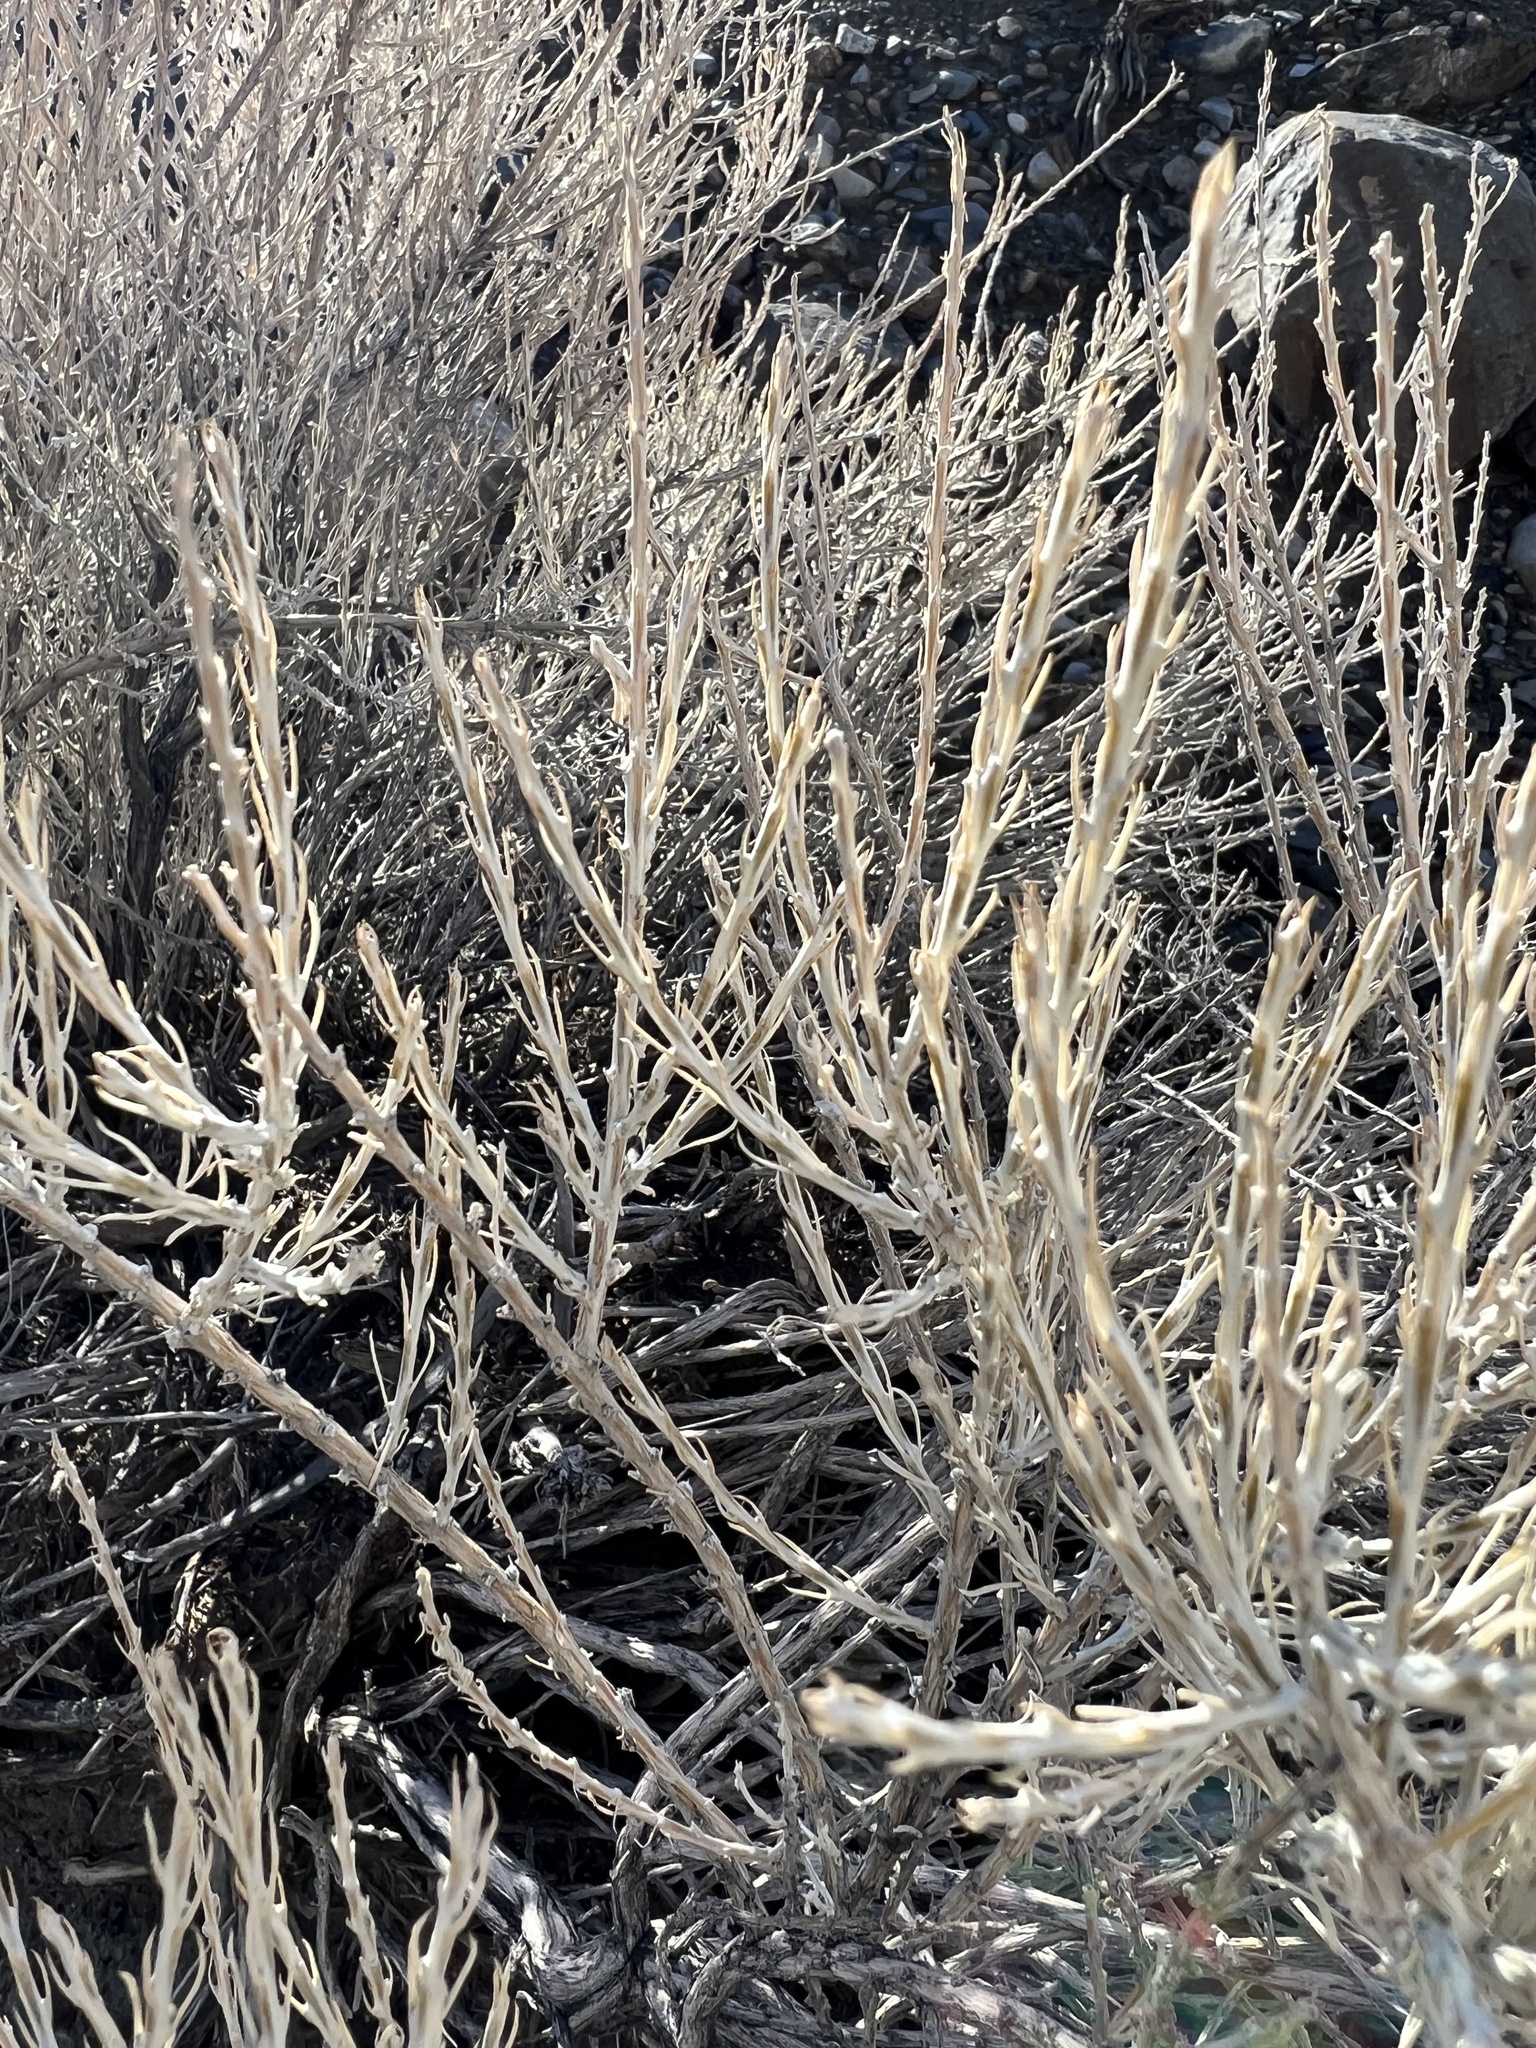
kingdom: Plantae
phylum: Tracheophyta
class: Magnoliopsida
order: Asterales
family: Asteraceae
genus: Tetradymia
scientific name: Tetradymia glabrata
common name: Smooth tetradymia
